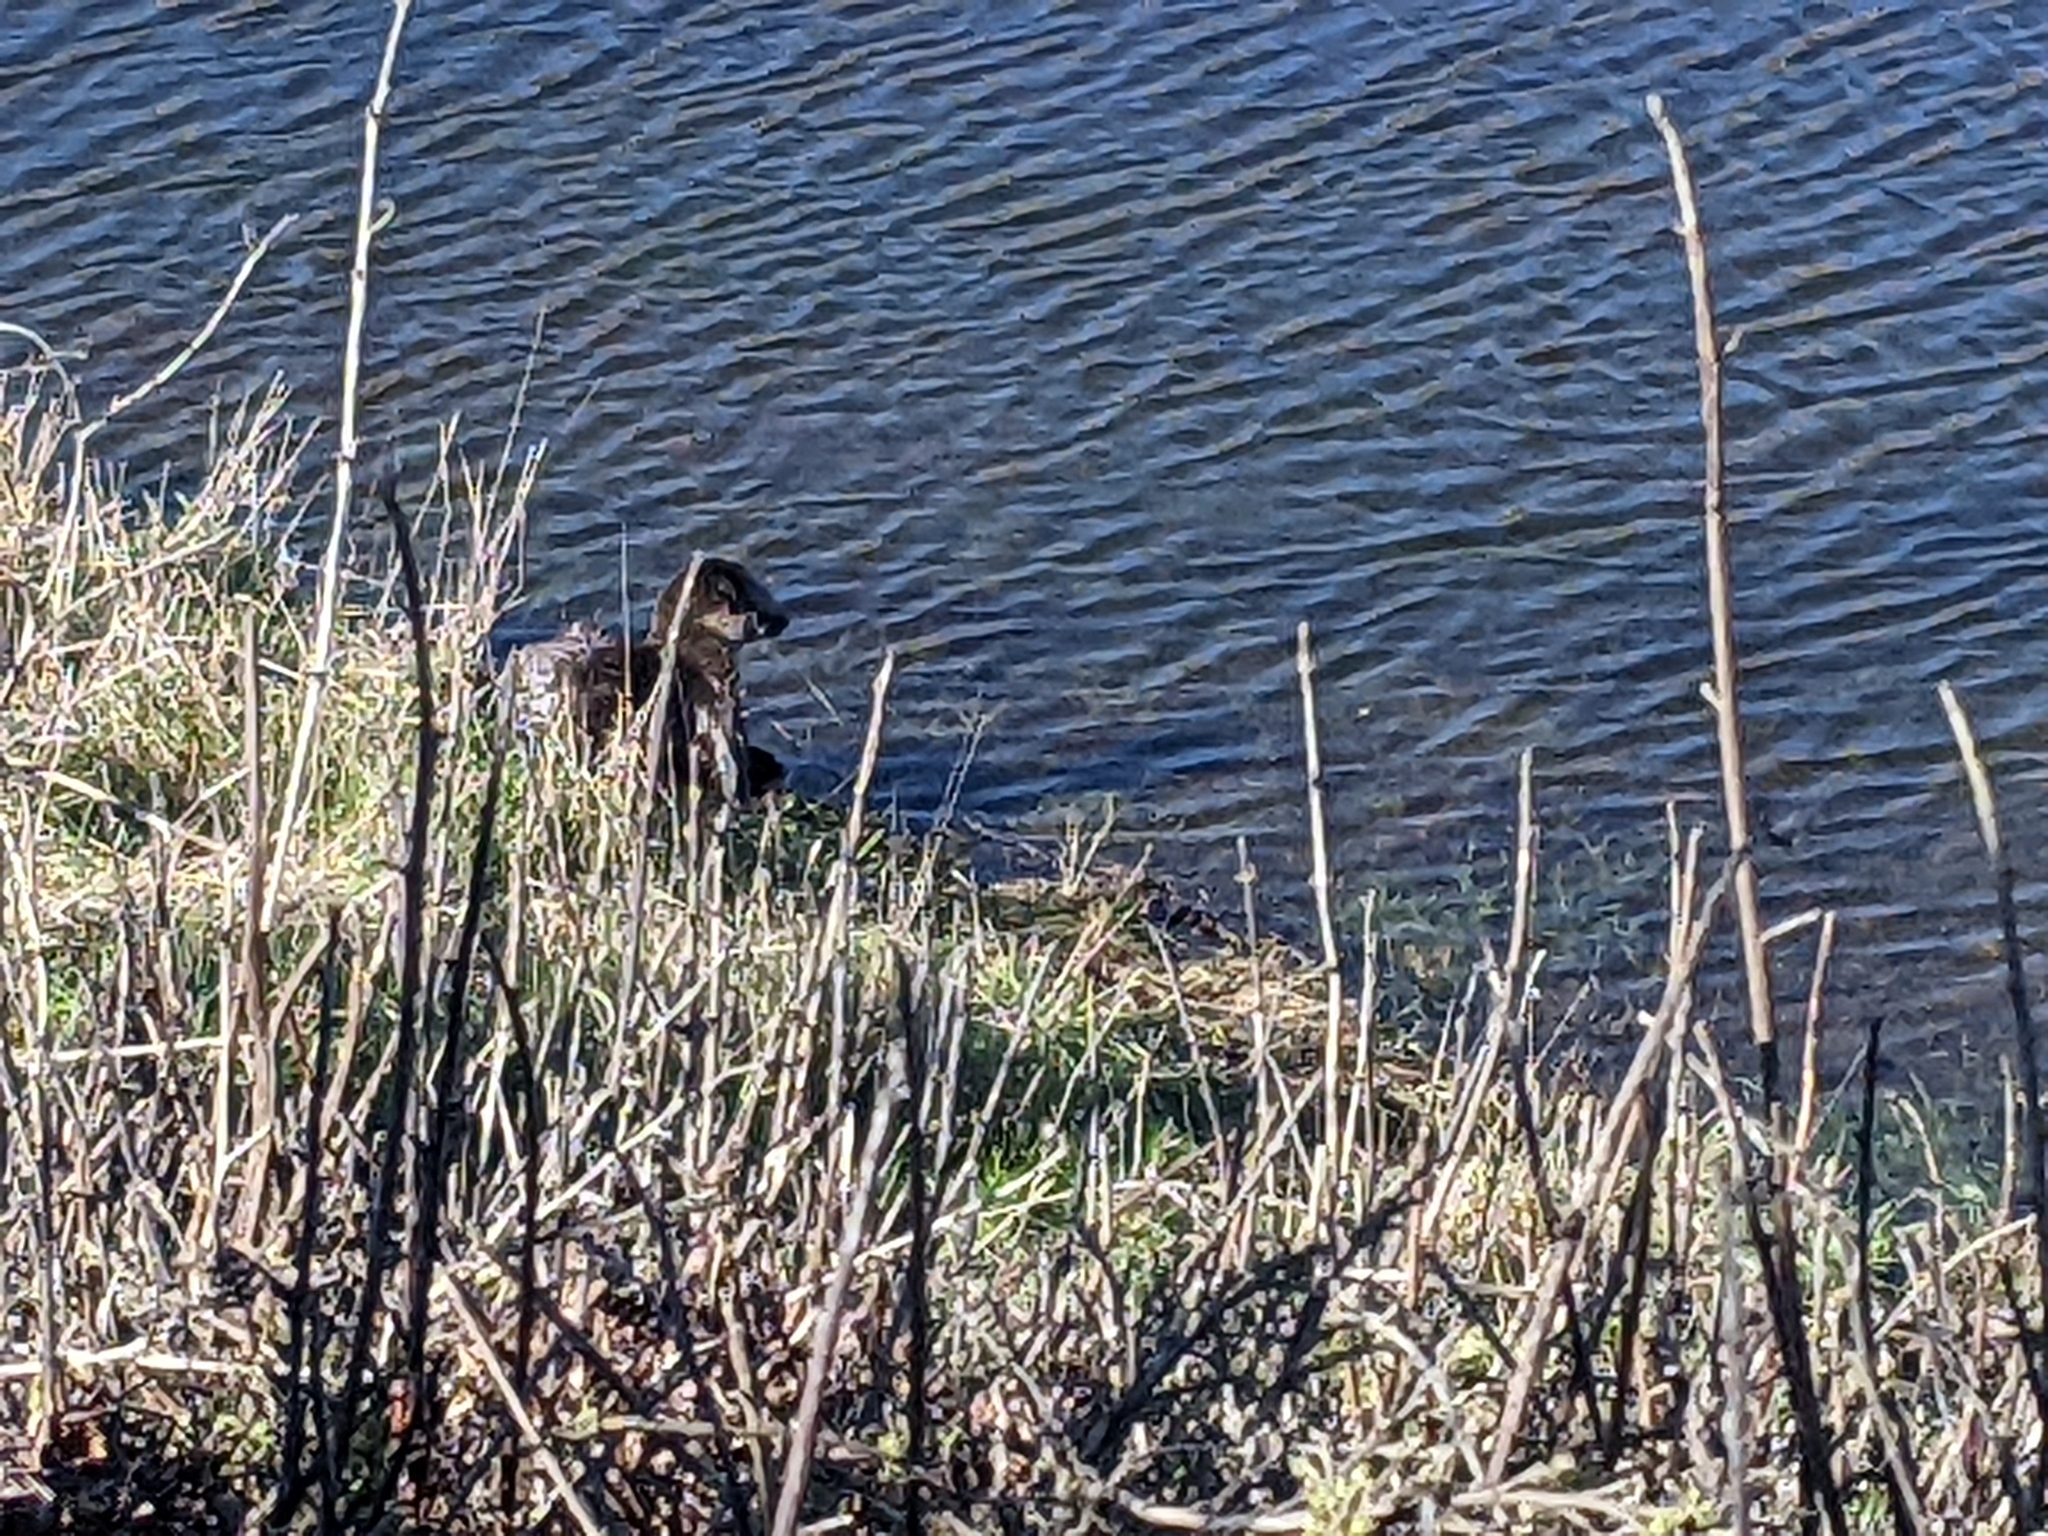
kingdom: Animalia
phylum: Chordata
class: Mammalia
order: Carnivora
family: Mustelidae
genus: Lontra
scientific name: Lontra canadensis
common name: North american river otter
